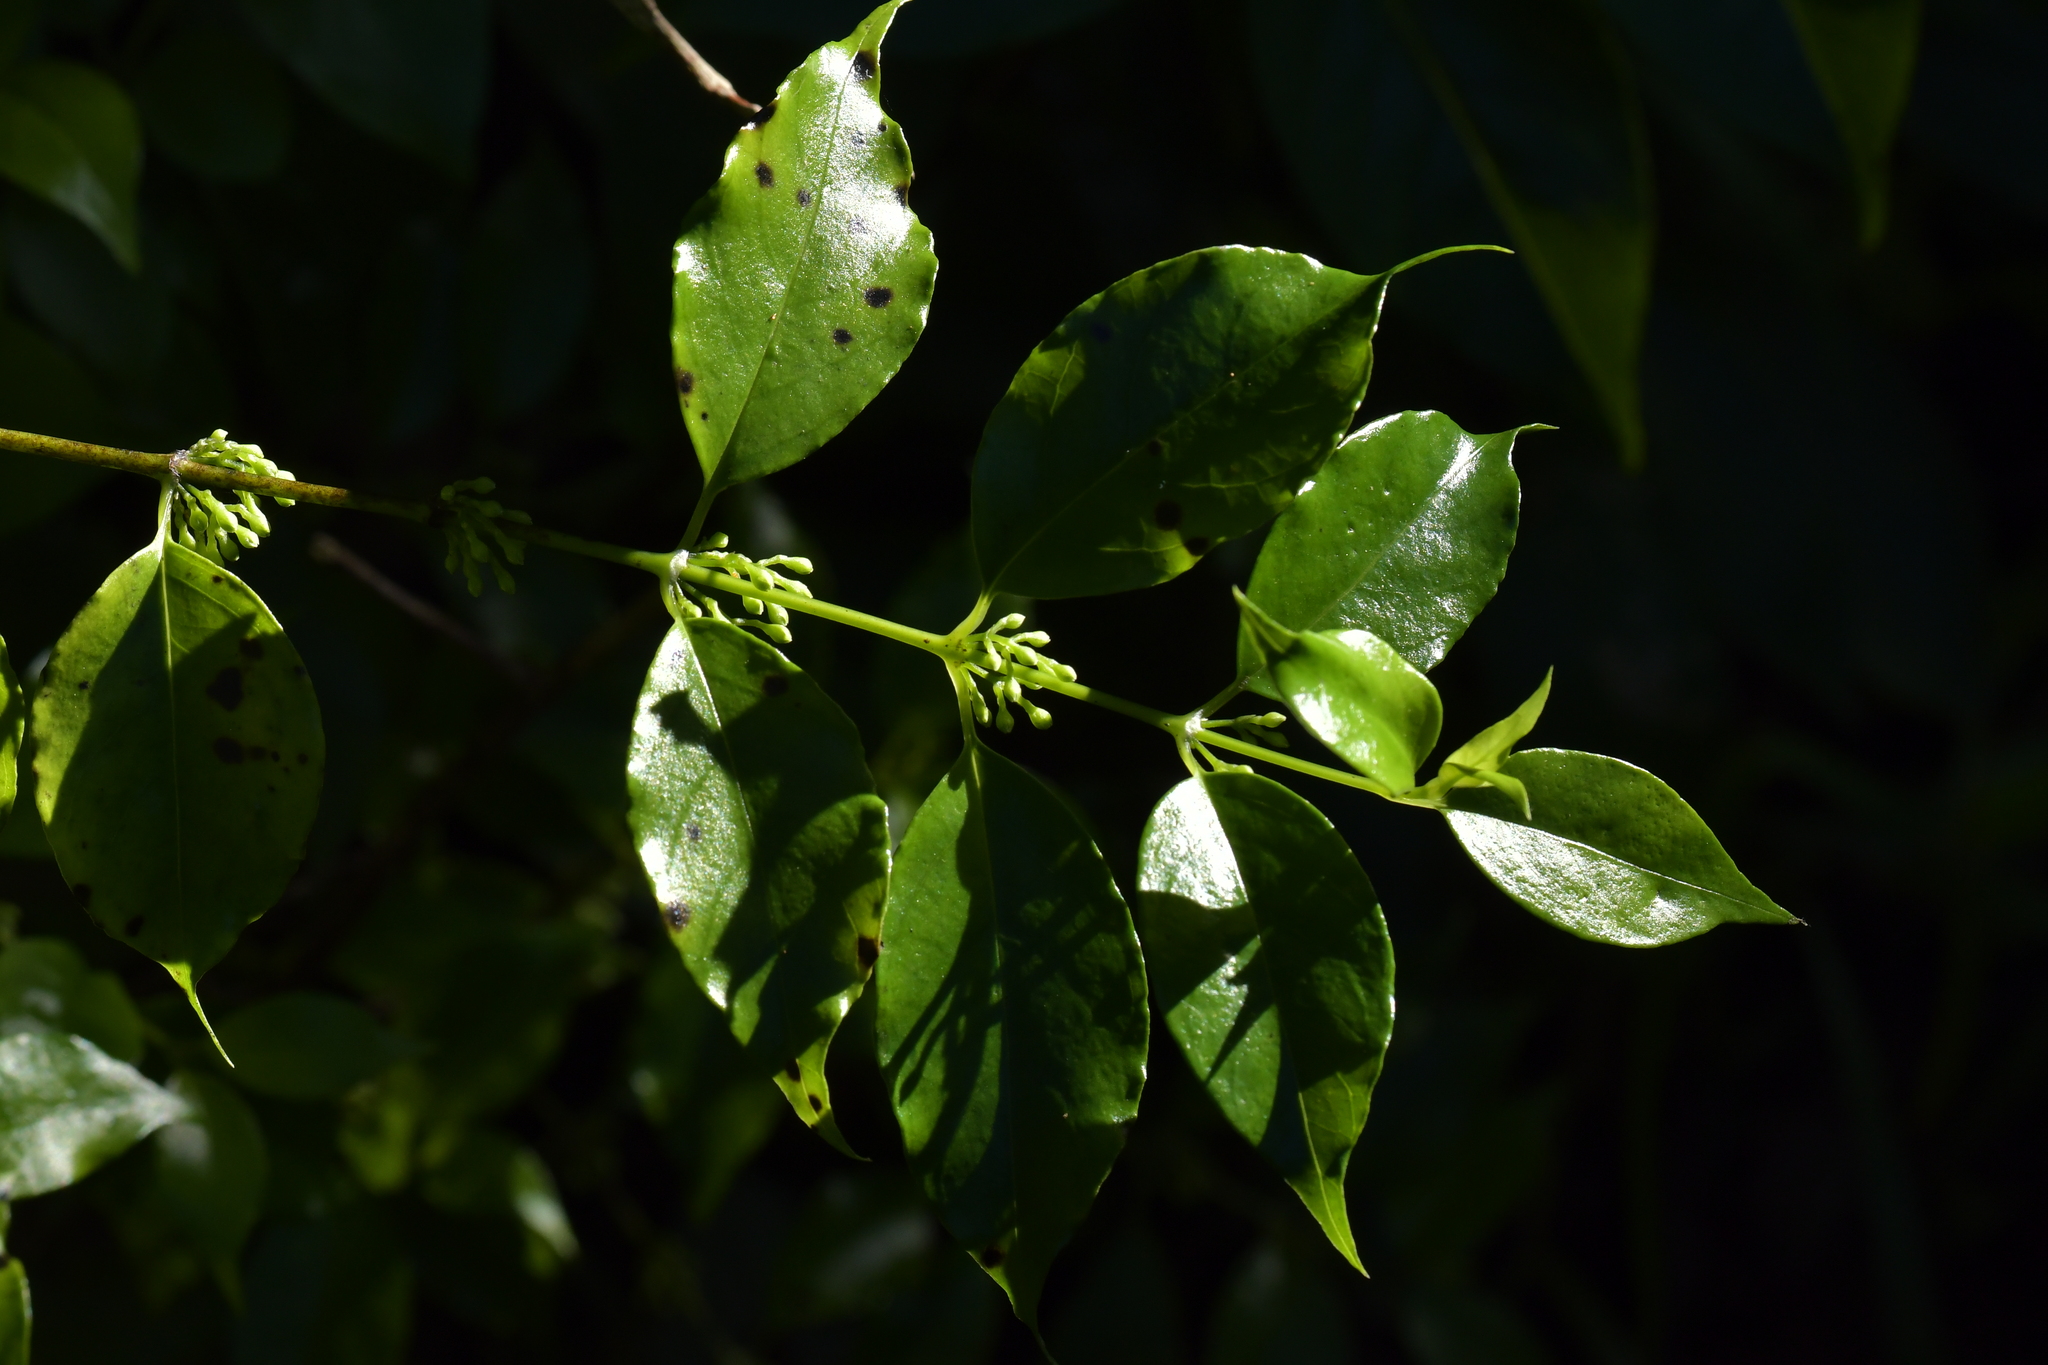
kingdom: Plantae
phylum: Tracheophyta
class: Magnoliopsida
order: Gentianales
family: Loganiaceae
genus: Geniostoma
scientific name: Geniostoma ligustrifolium
